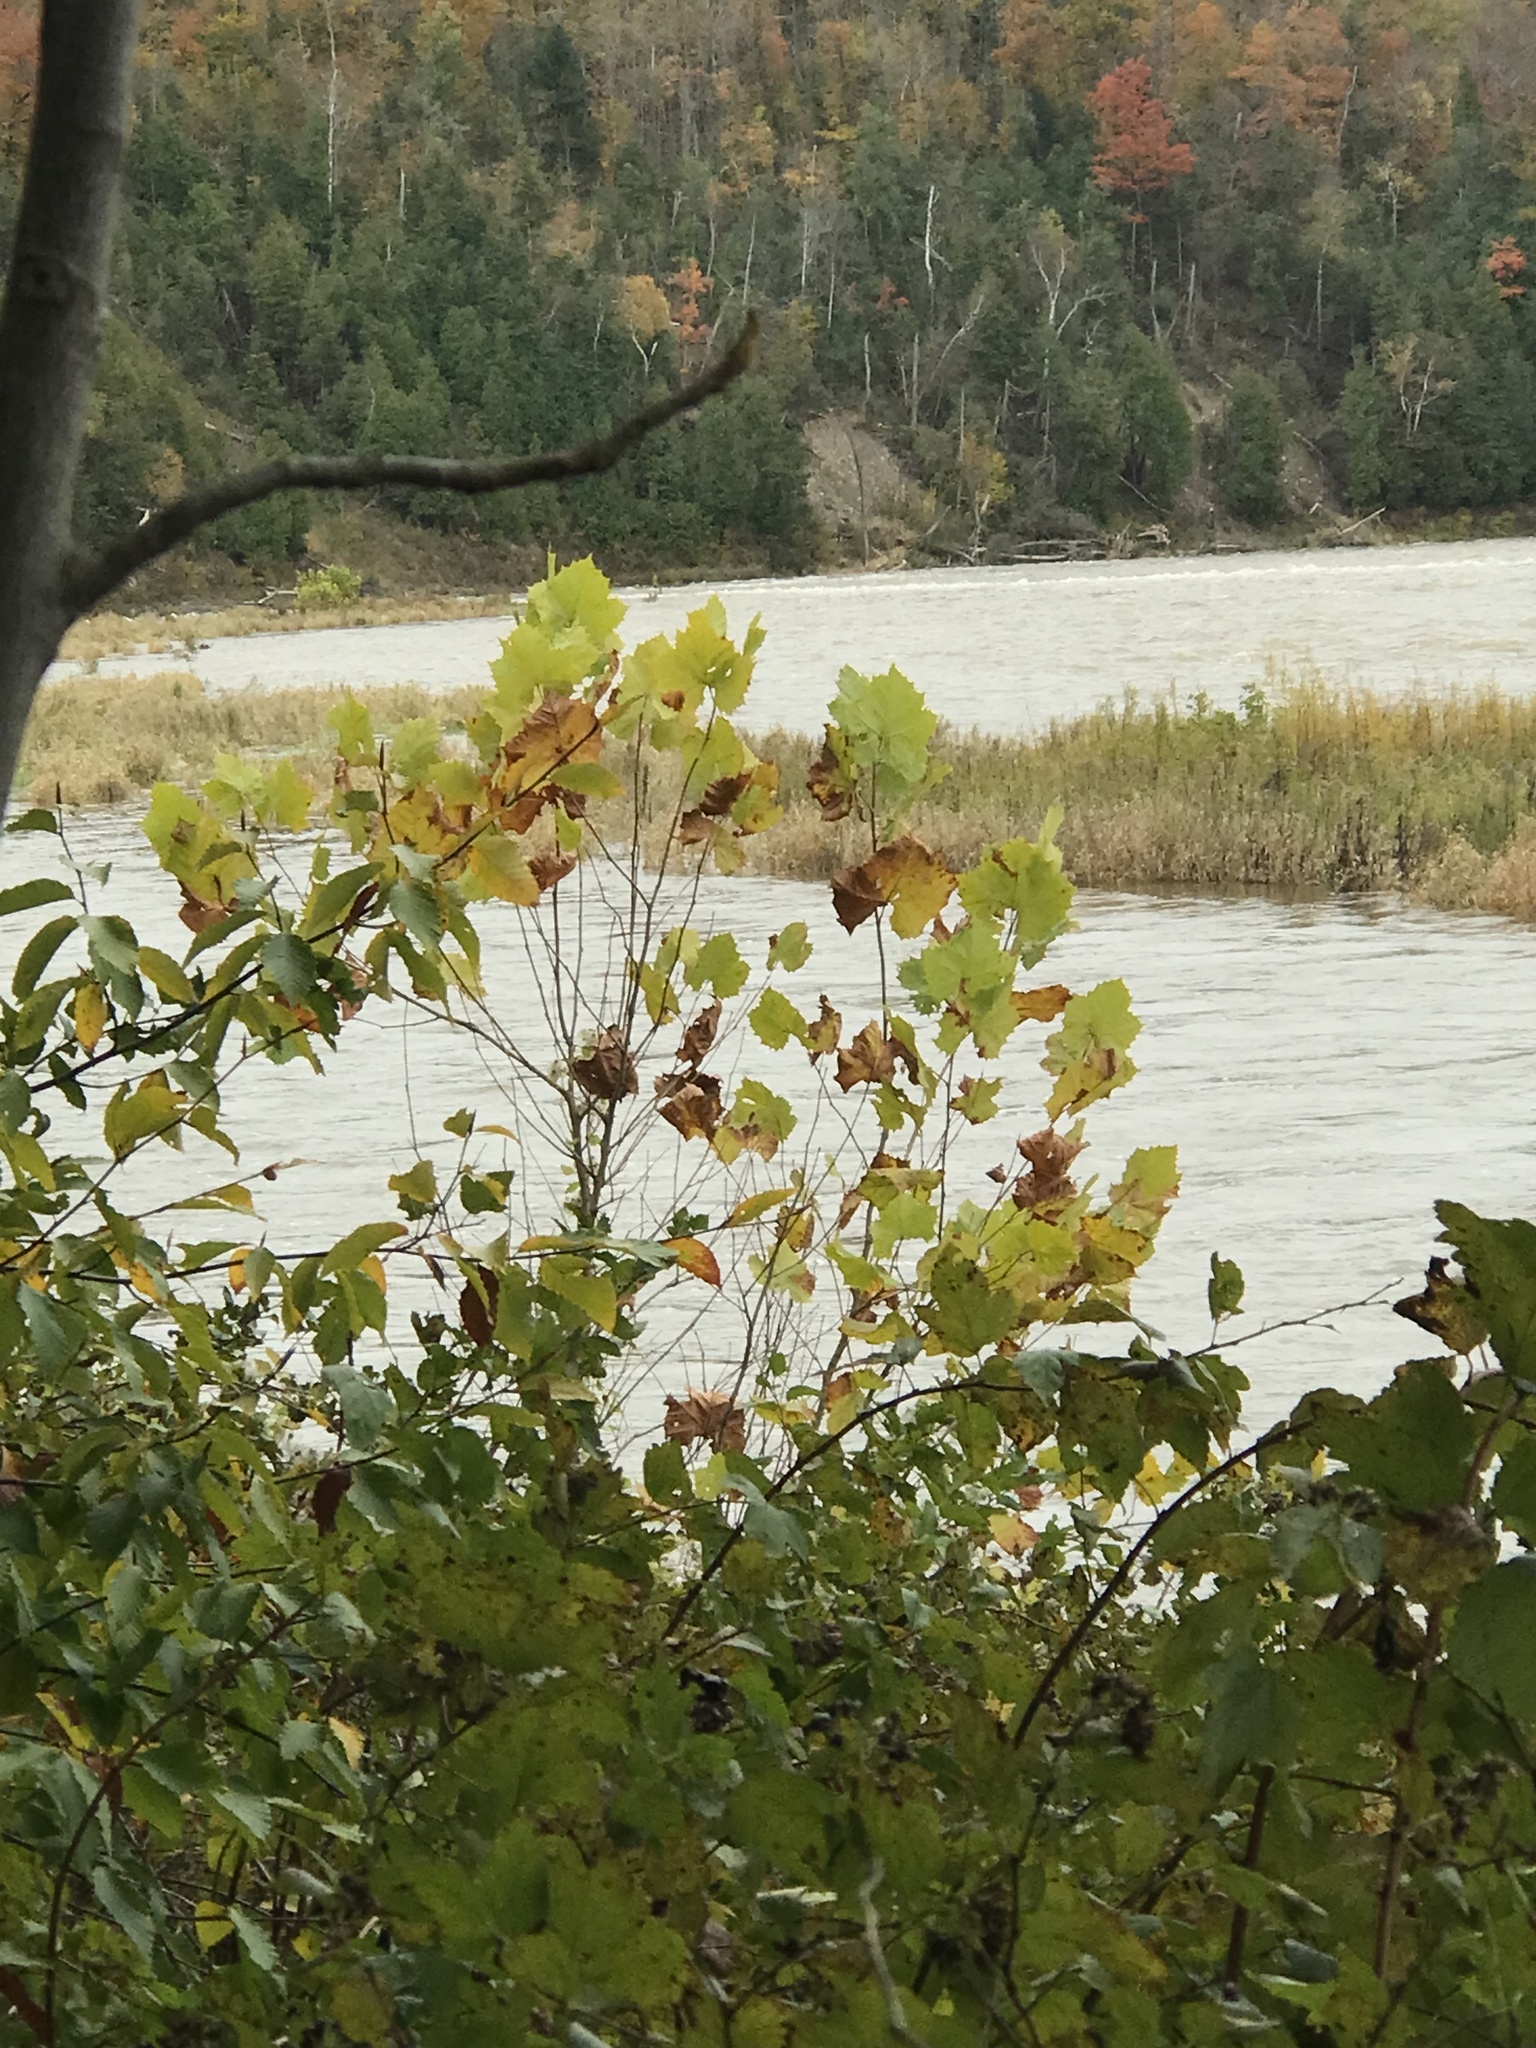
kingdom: Plantae
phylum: Tracheophyta
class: Magnoliopsida
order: Proteales
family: Platanaceae
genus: Platanus
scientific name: Platanus occidentalis
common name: American sycamore
